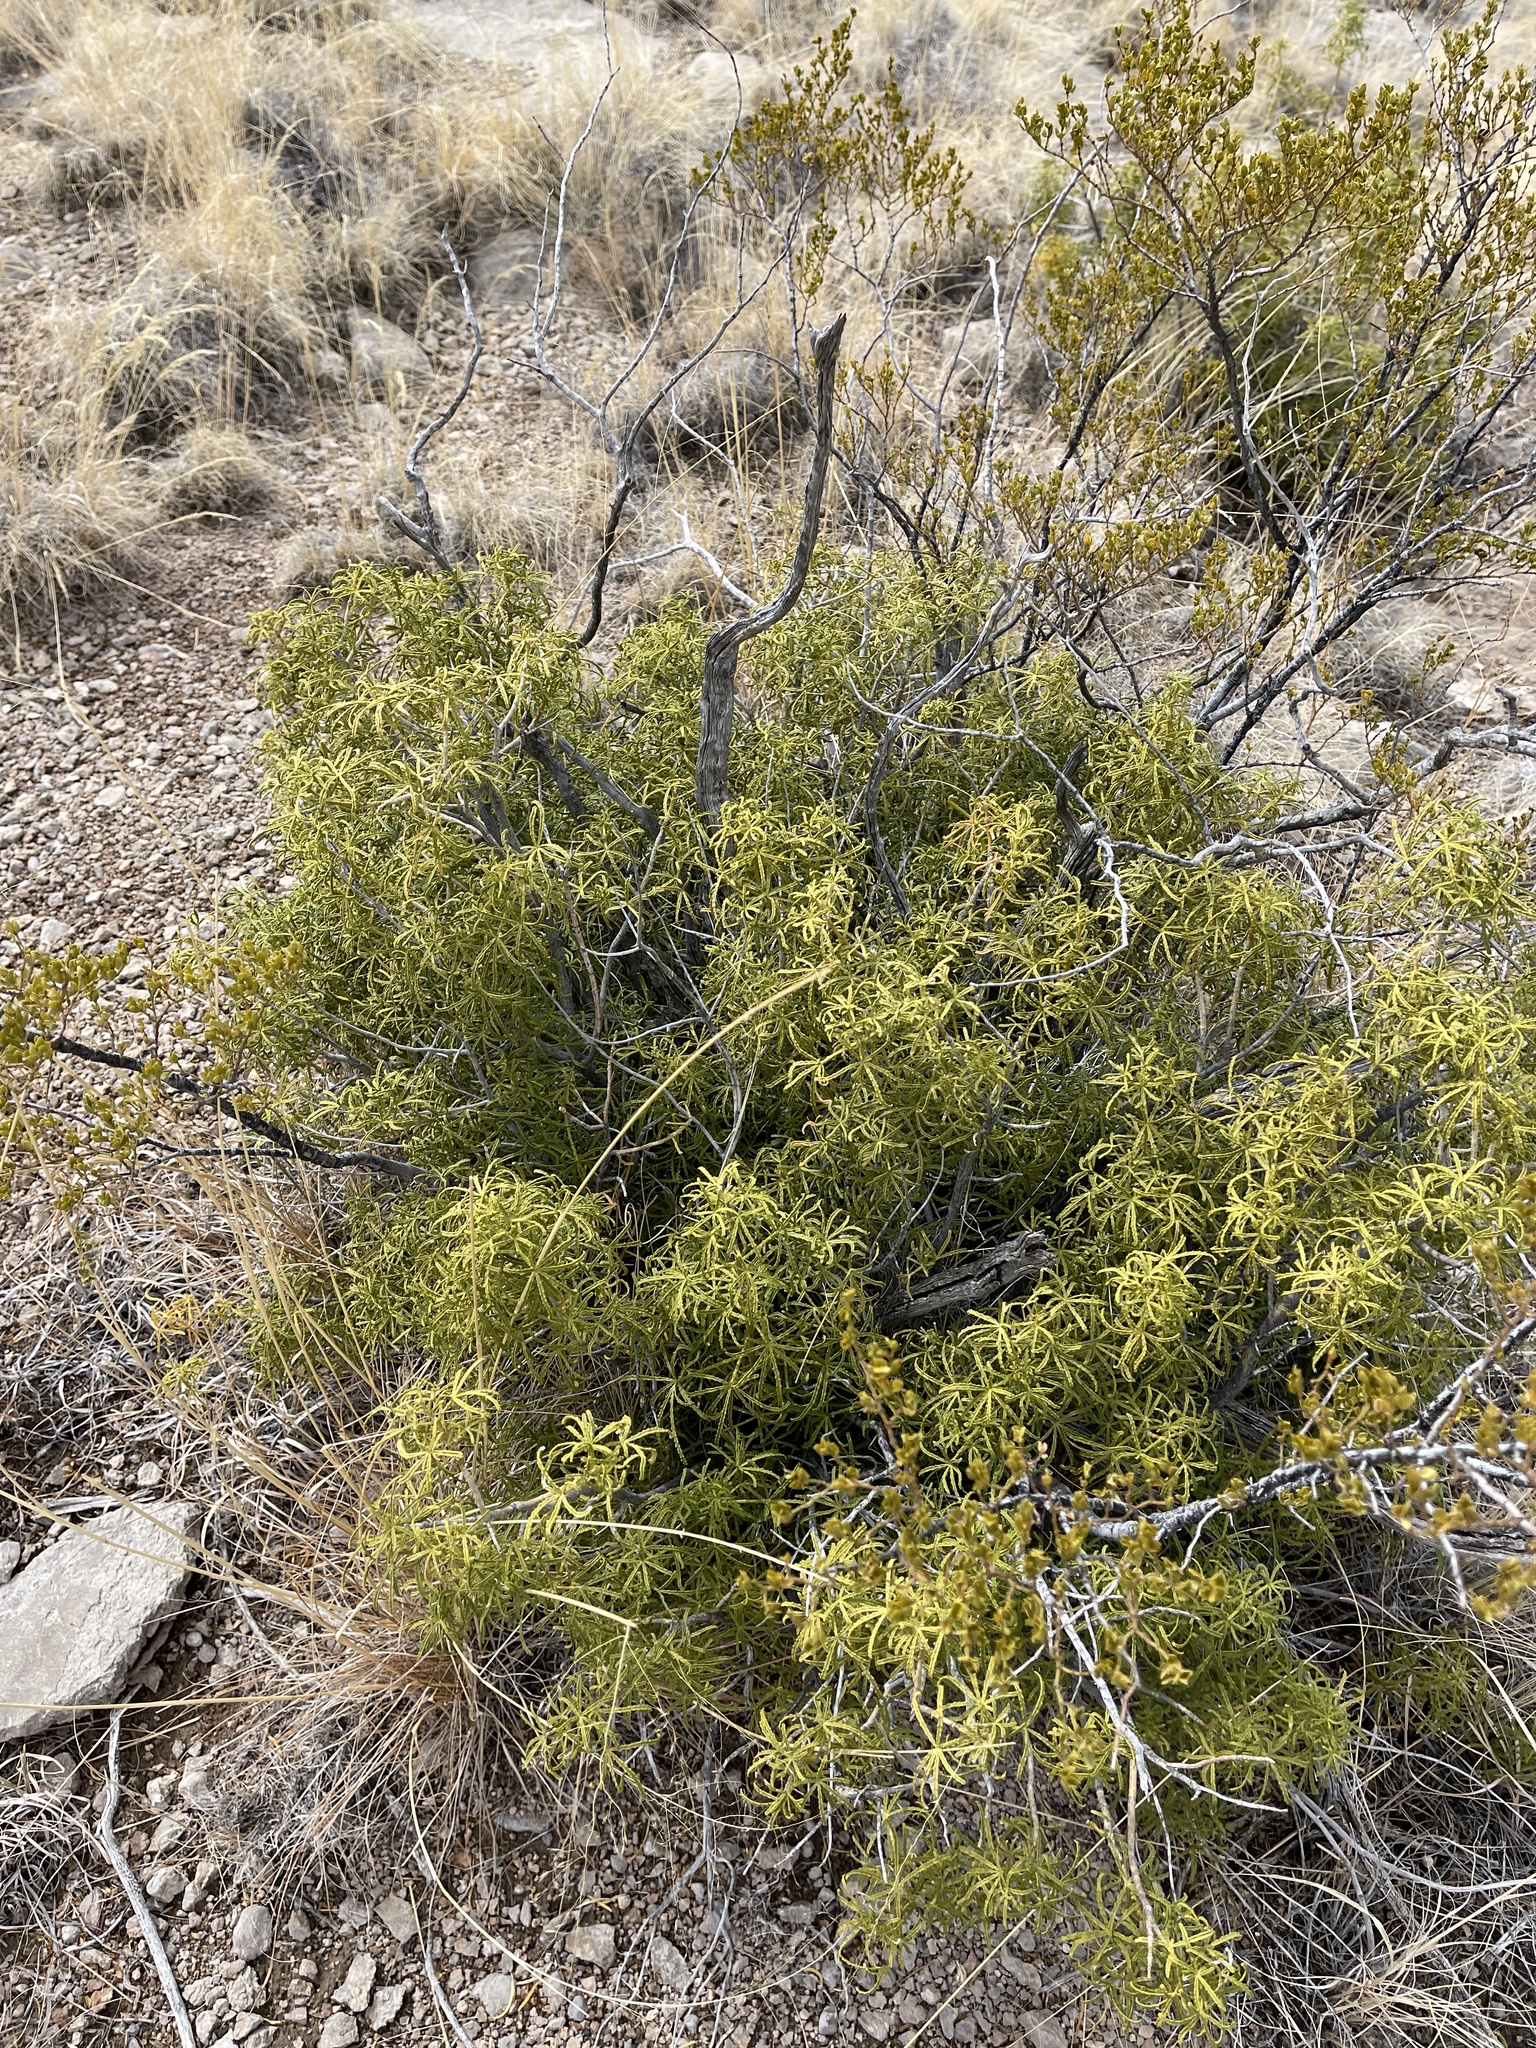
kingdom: Plantae
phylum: Tracheophyta
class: Magnoliopsida
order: Sapindales
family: Rutaceae
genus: Choisya
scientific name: Choisya dumosa
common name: Mexican-orange
